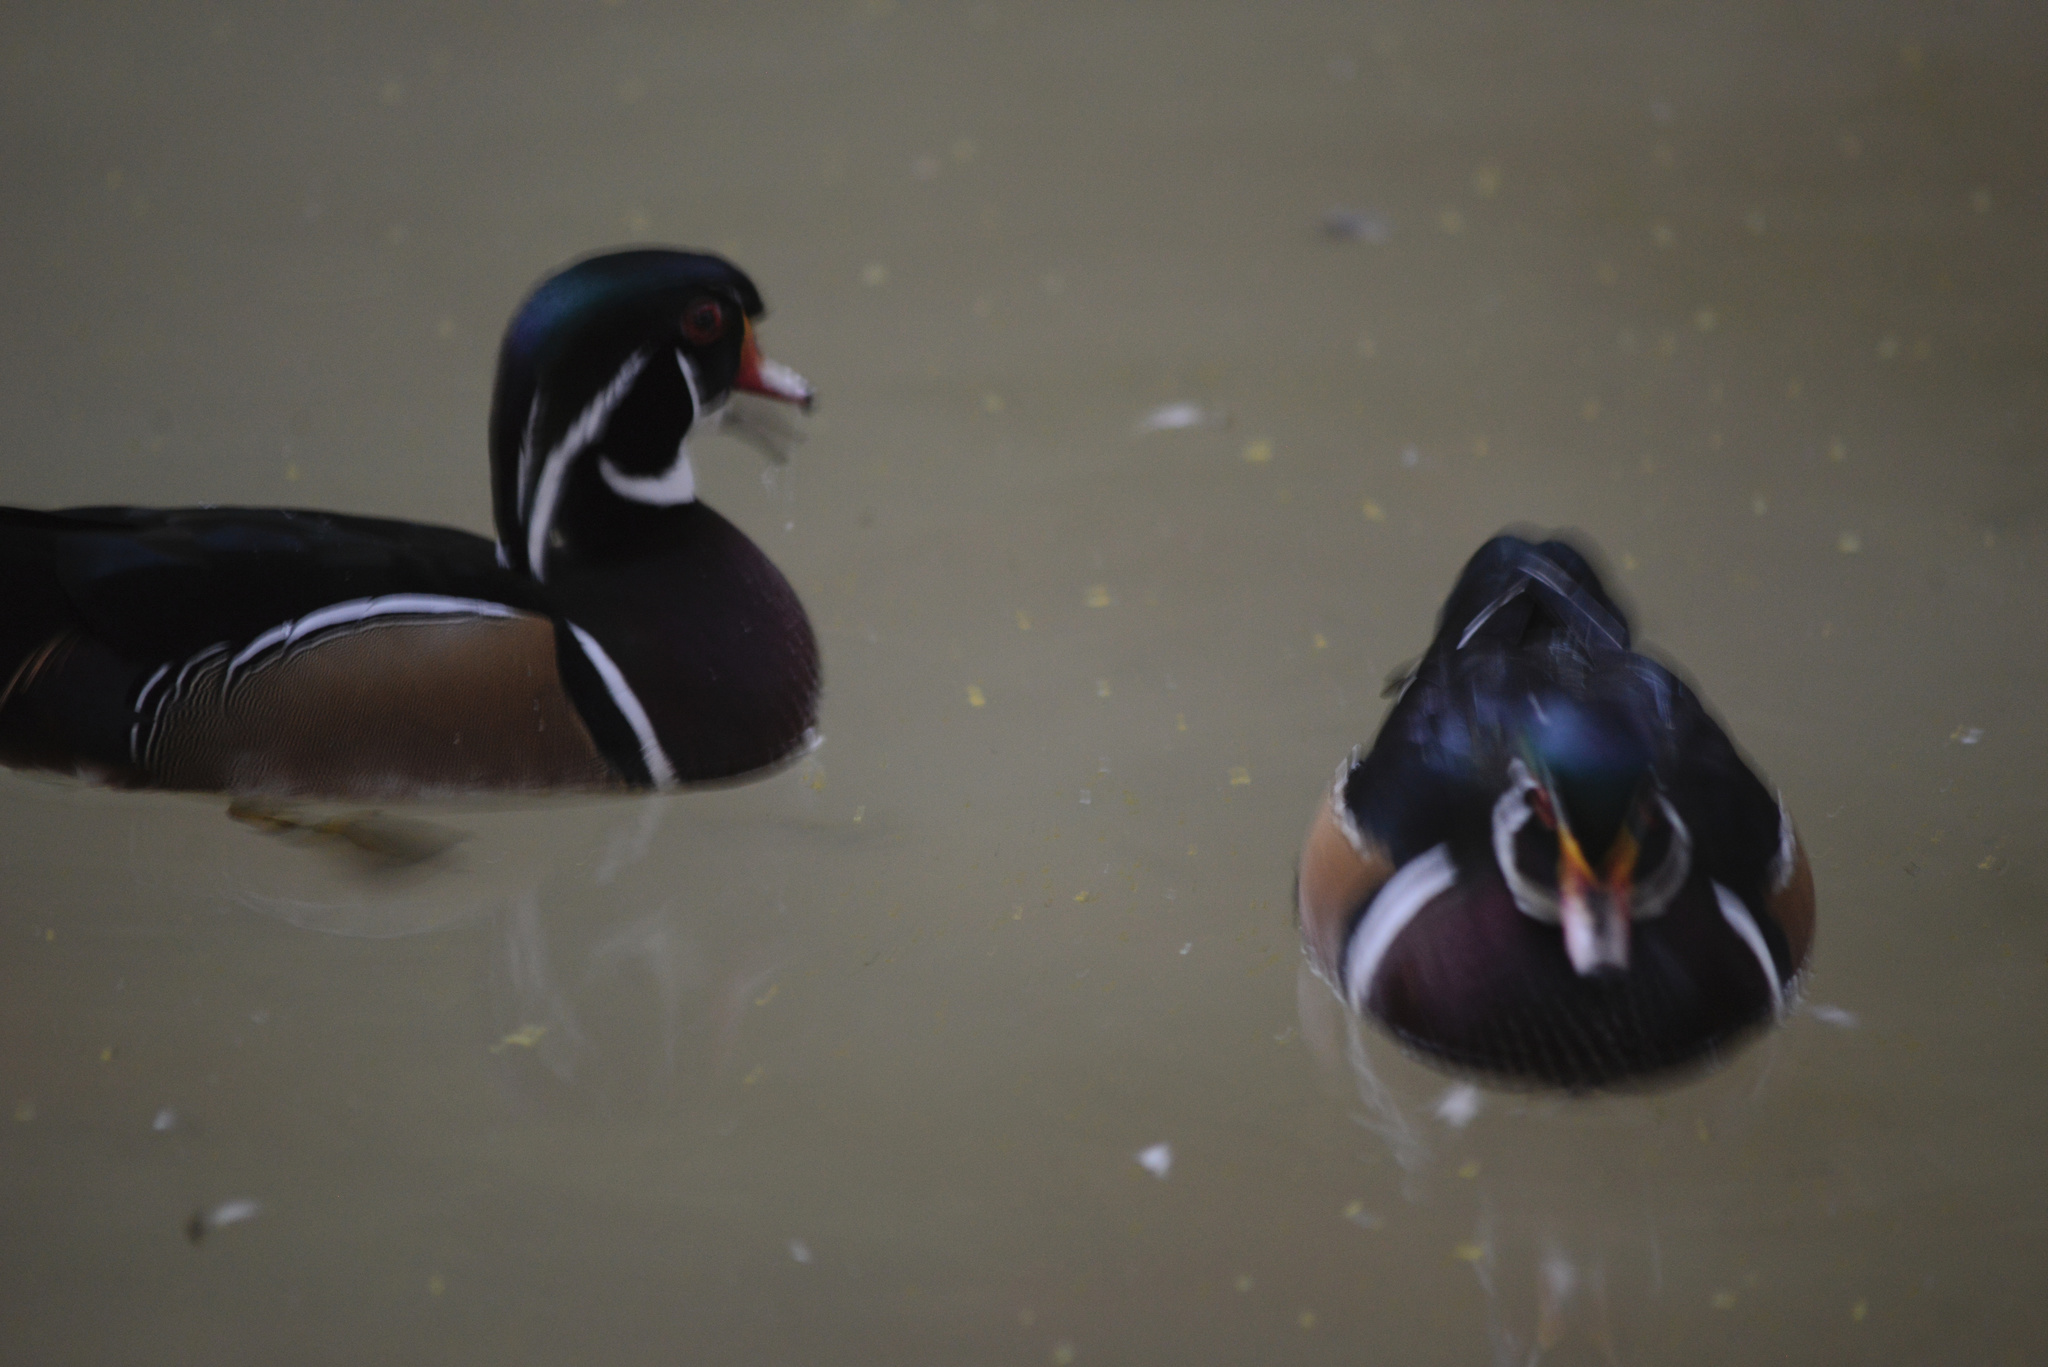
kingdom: Animalia
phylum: Chordata
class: Aves
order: Anseriformes
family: Anatidae
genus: Aix
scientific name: Aix sponsa
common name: Wood duck
